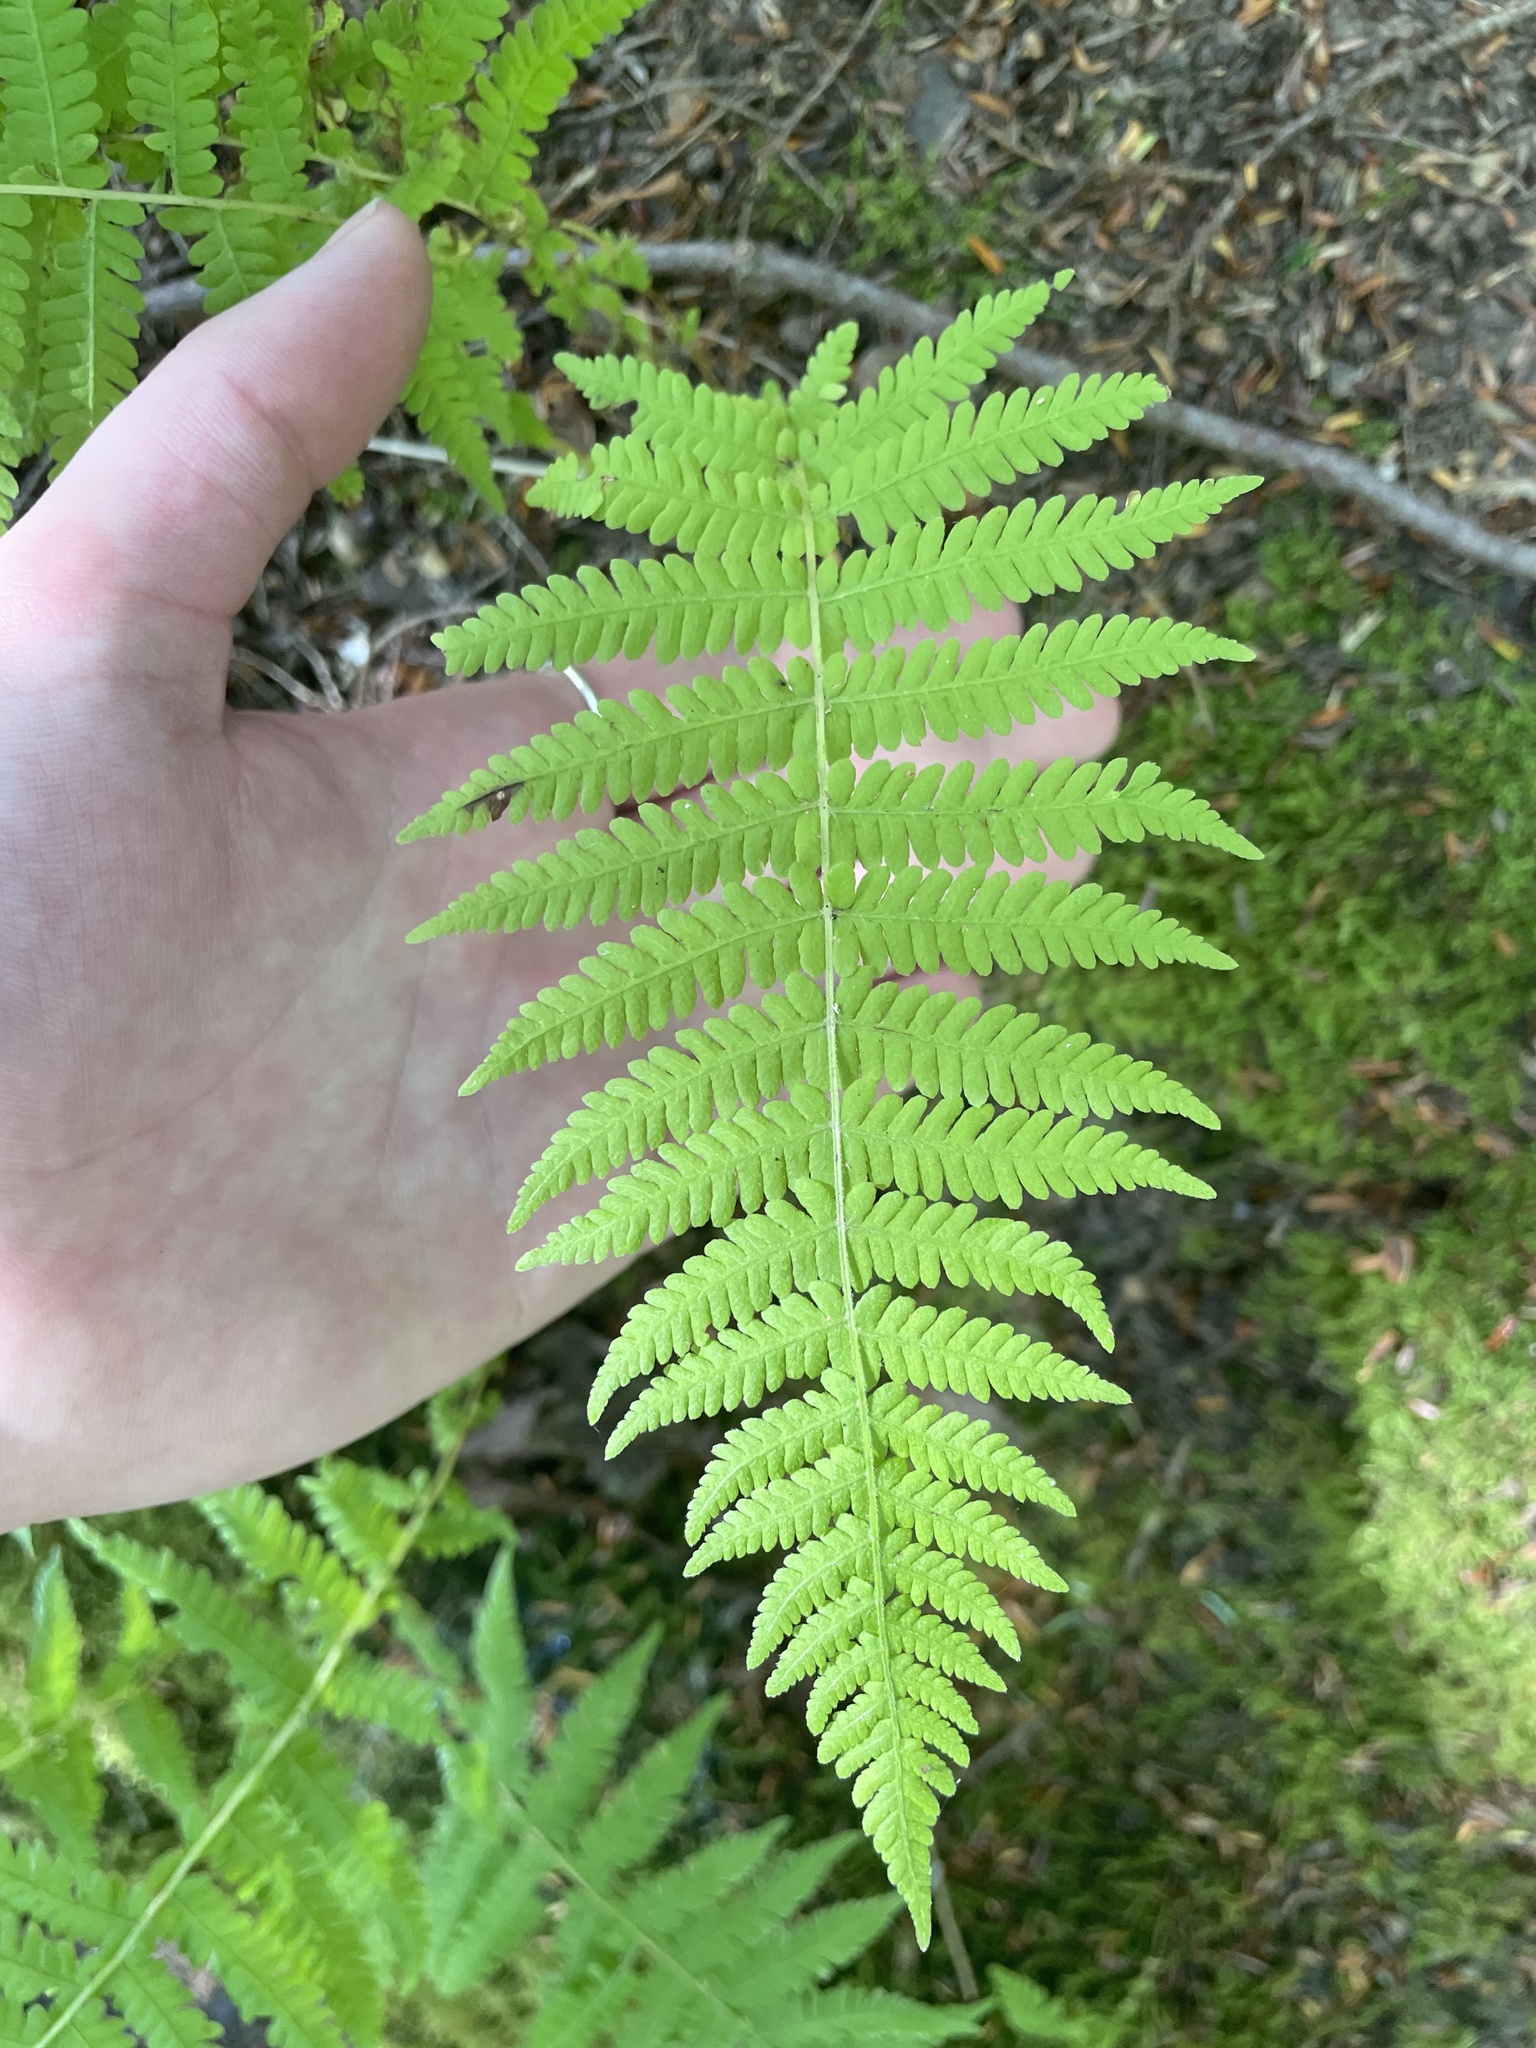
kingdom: Plantae
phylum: Tracheophyta
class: Polypodiopsida
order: Polypodiales
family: Thelypteridaceae
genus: Amauropelta
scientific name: Amauropelta noveboracensis
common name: New york fern
